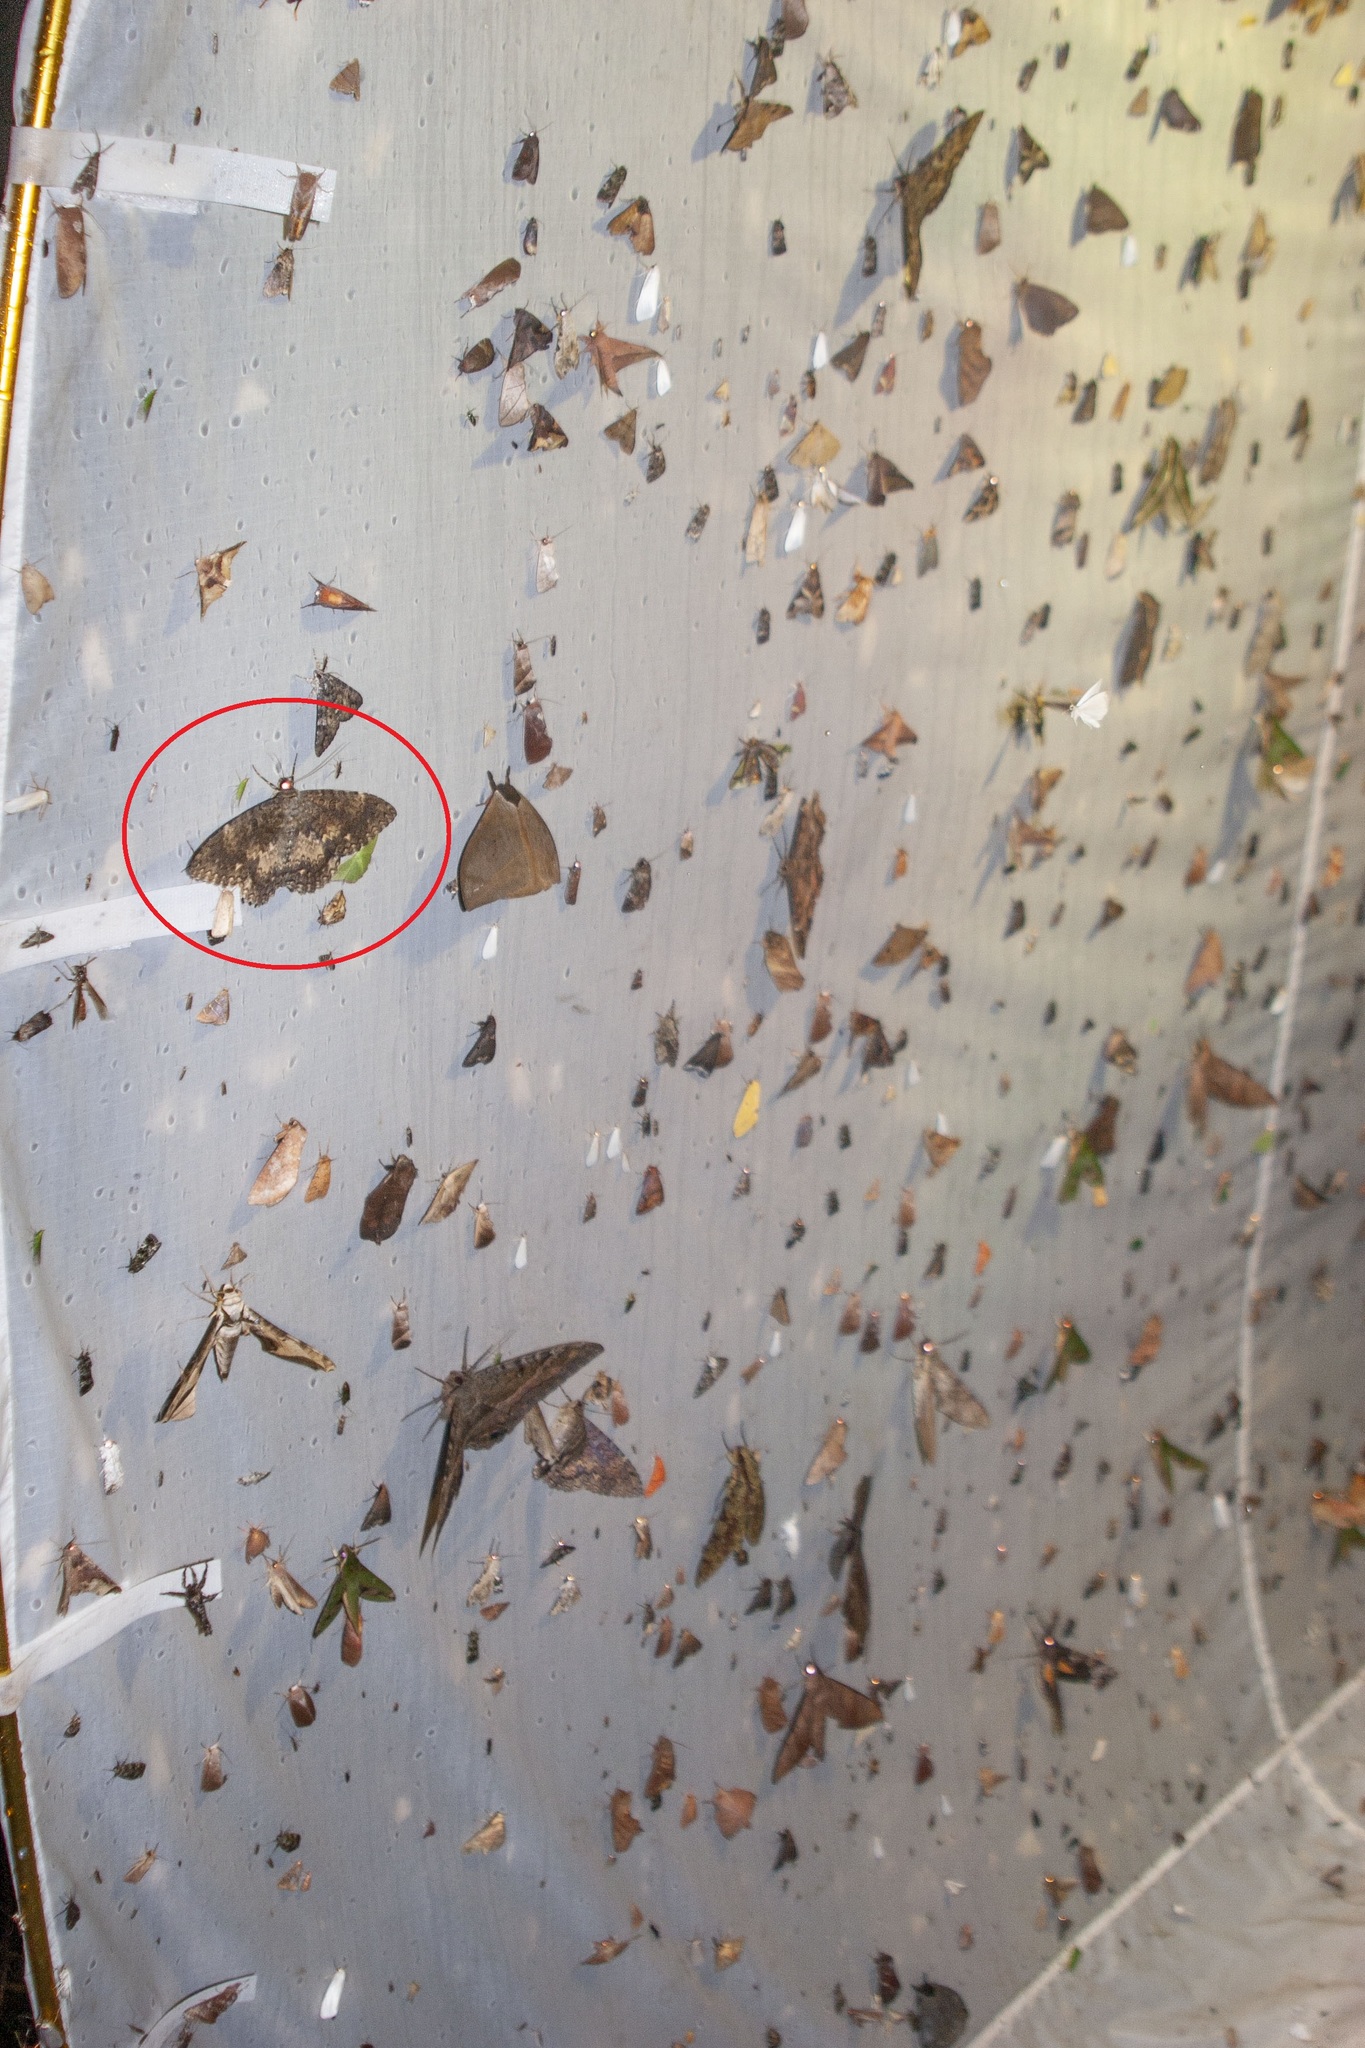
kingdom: Animalia
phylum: Arthropoda
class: Insecta
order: Lepidoptera
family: Erebidae
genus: Feigeria
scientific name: Feigeria scops
